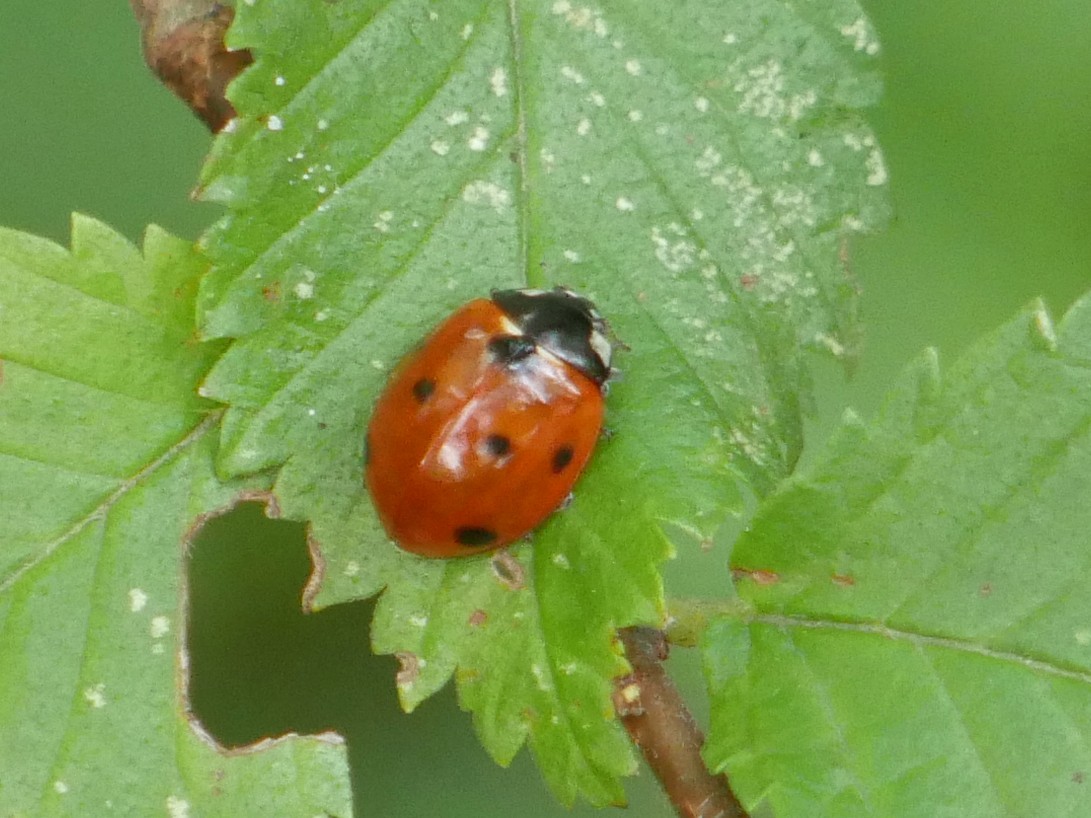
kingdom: Animalia
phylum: Arthropoda
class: Insecta
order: Coleoptera
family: Coccinellidae
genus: Coccinella
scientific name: Coccinella septempunctata
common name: Sevenspotted lady beetle
